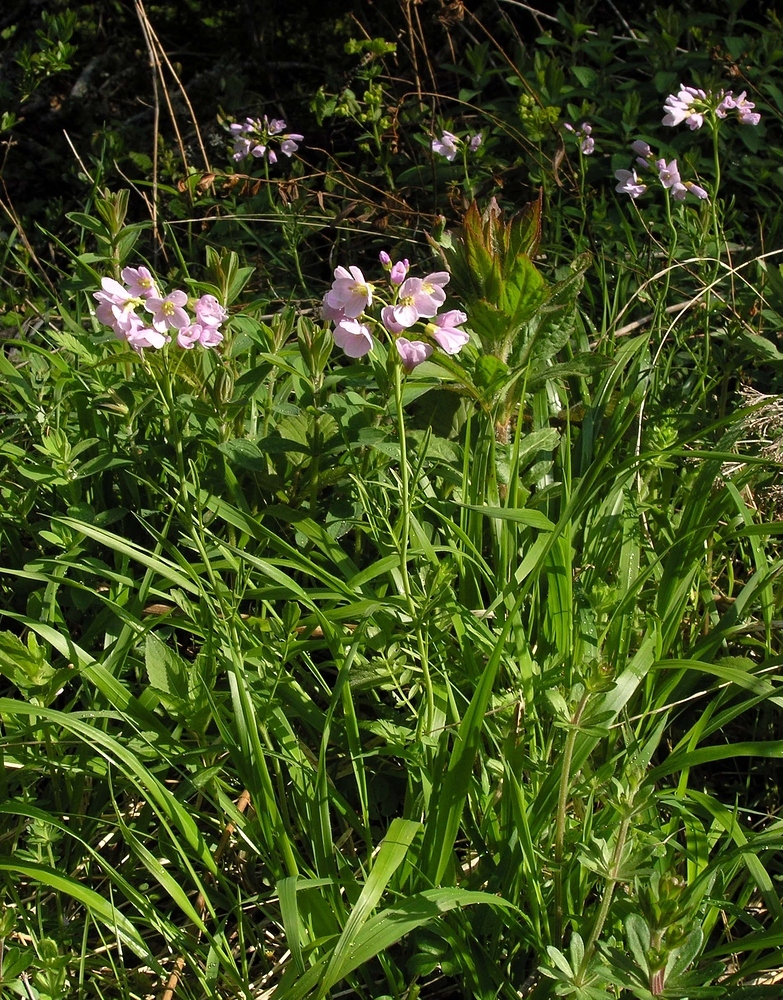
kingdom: Plantae
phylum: Tracheophyta
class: Magnoliopsida
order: Brassicales
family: Brassicaceae
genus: Cardamine
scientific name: Cardamine pratensis
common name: Cuckoo flower
